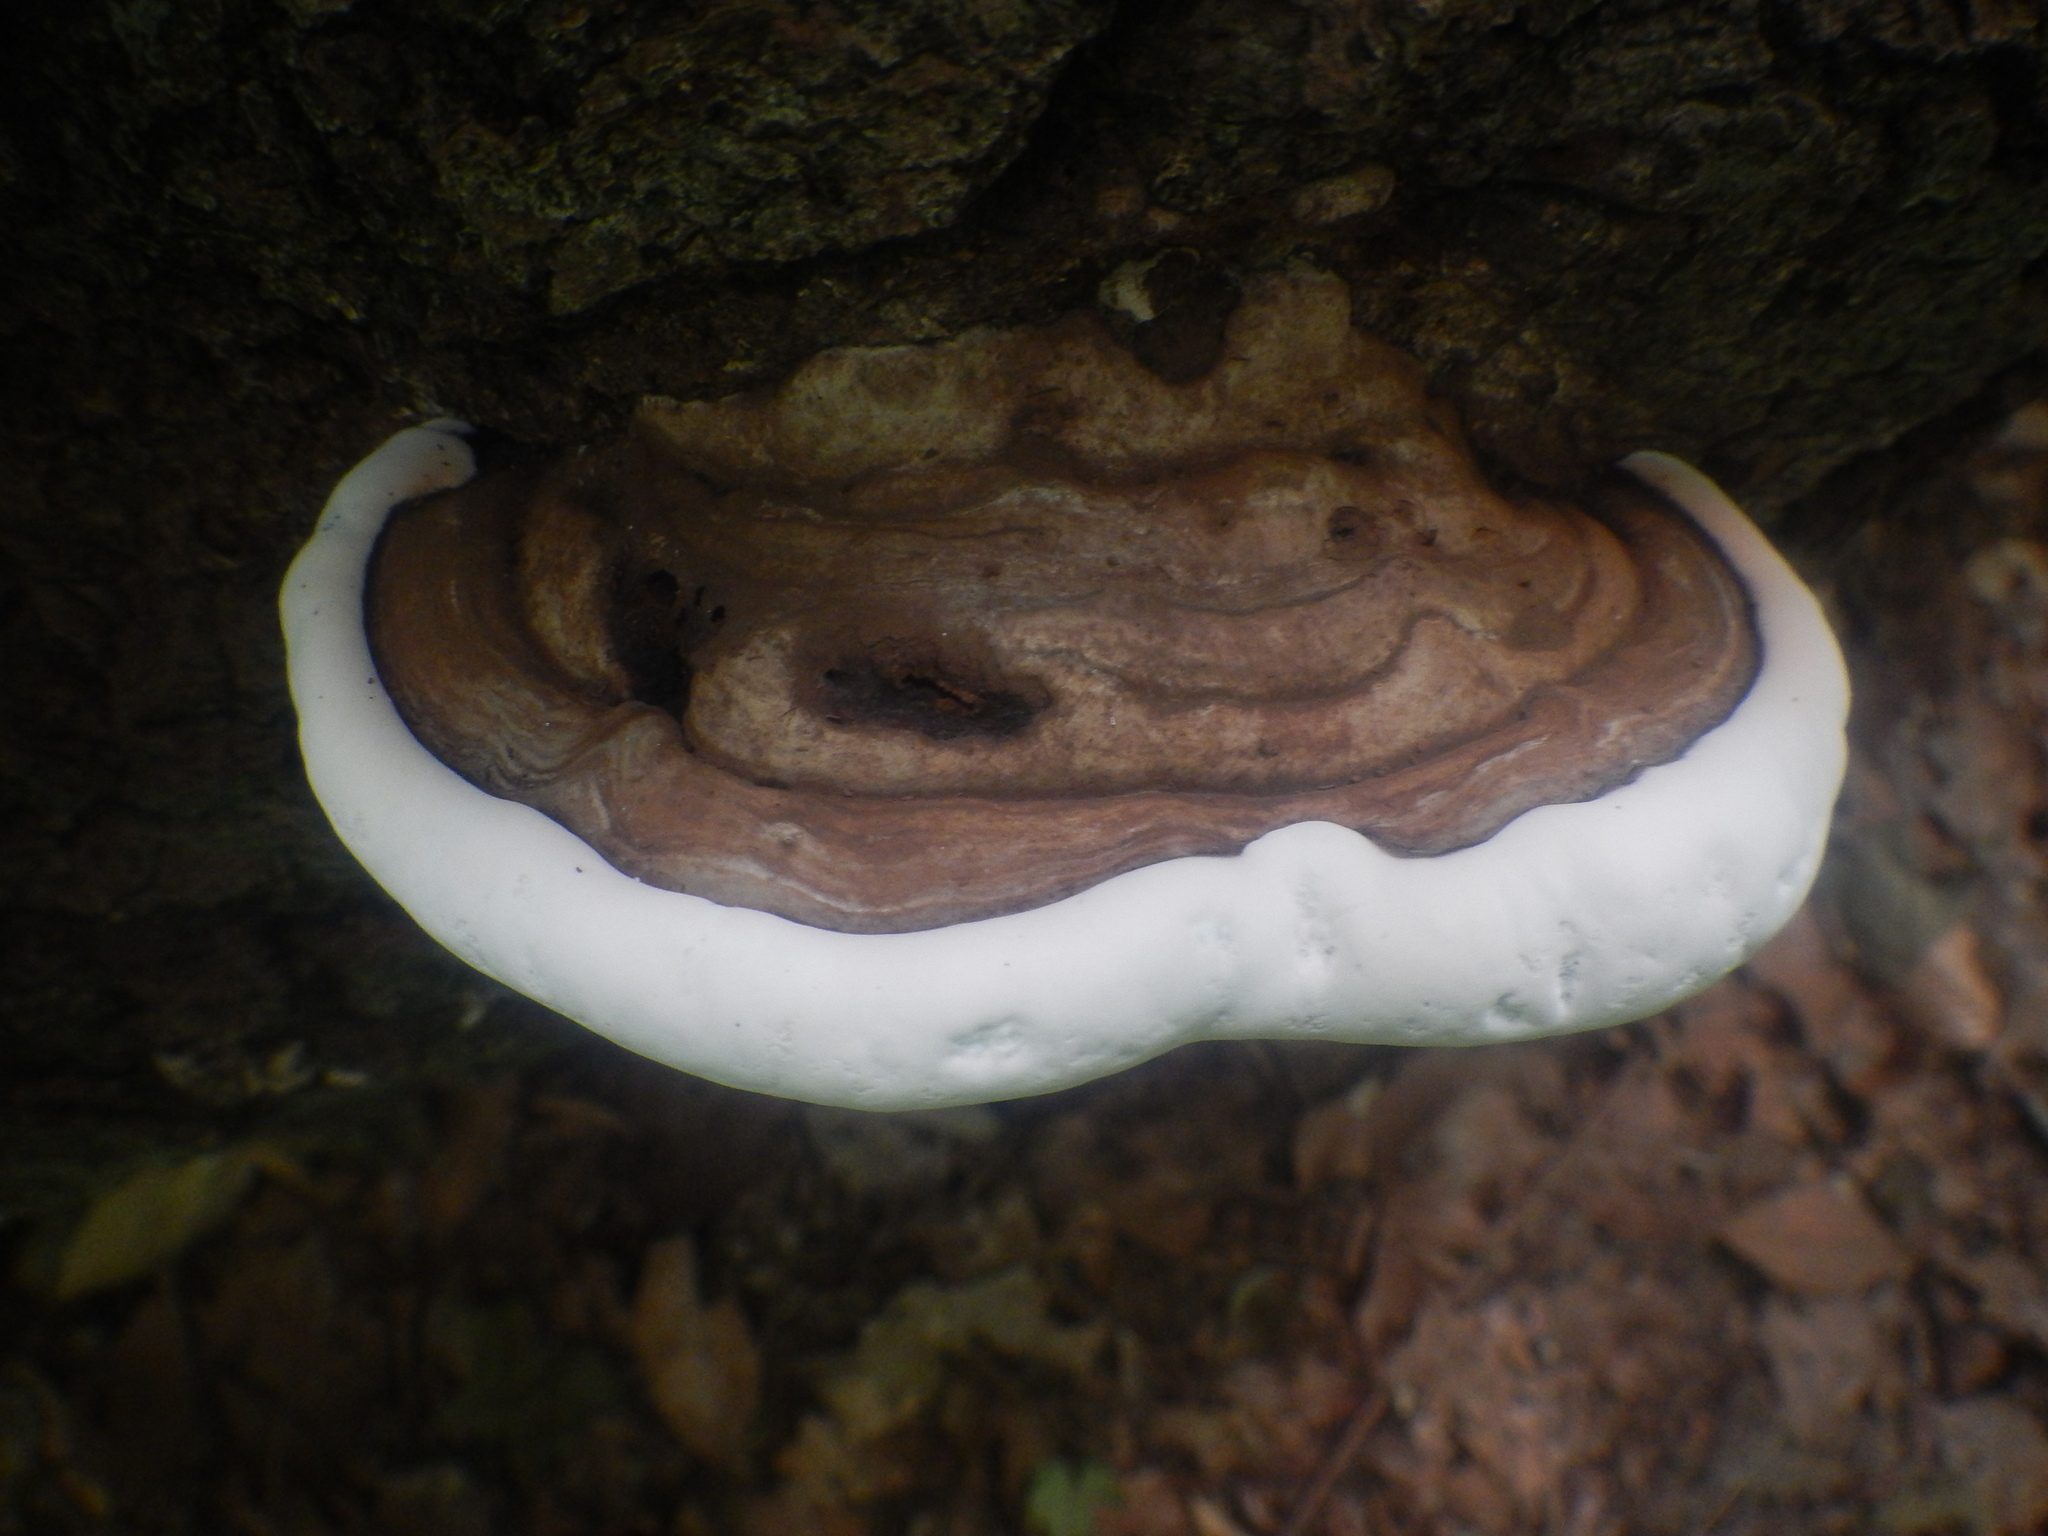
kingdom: Fungi
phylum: Basidiomycota
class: Agaricomycetes
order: Polyporales
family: Polyporaceae
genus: Ganoderma
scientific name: Ganoderma applanatum
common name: Artist's bracket
